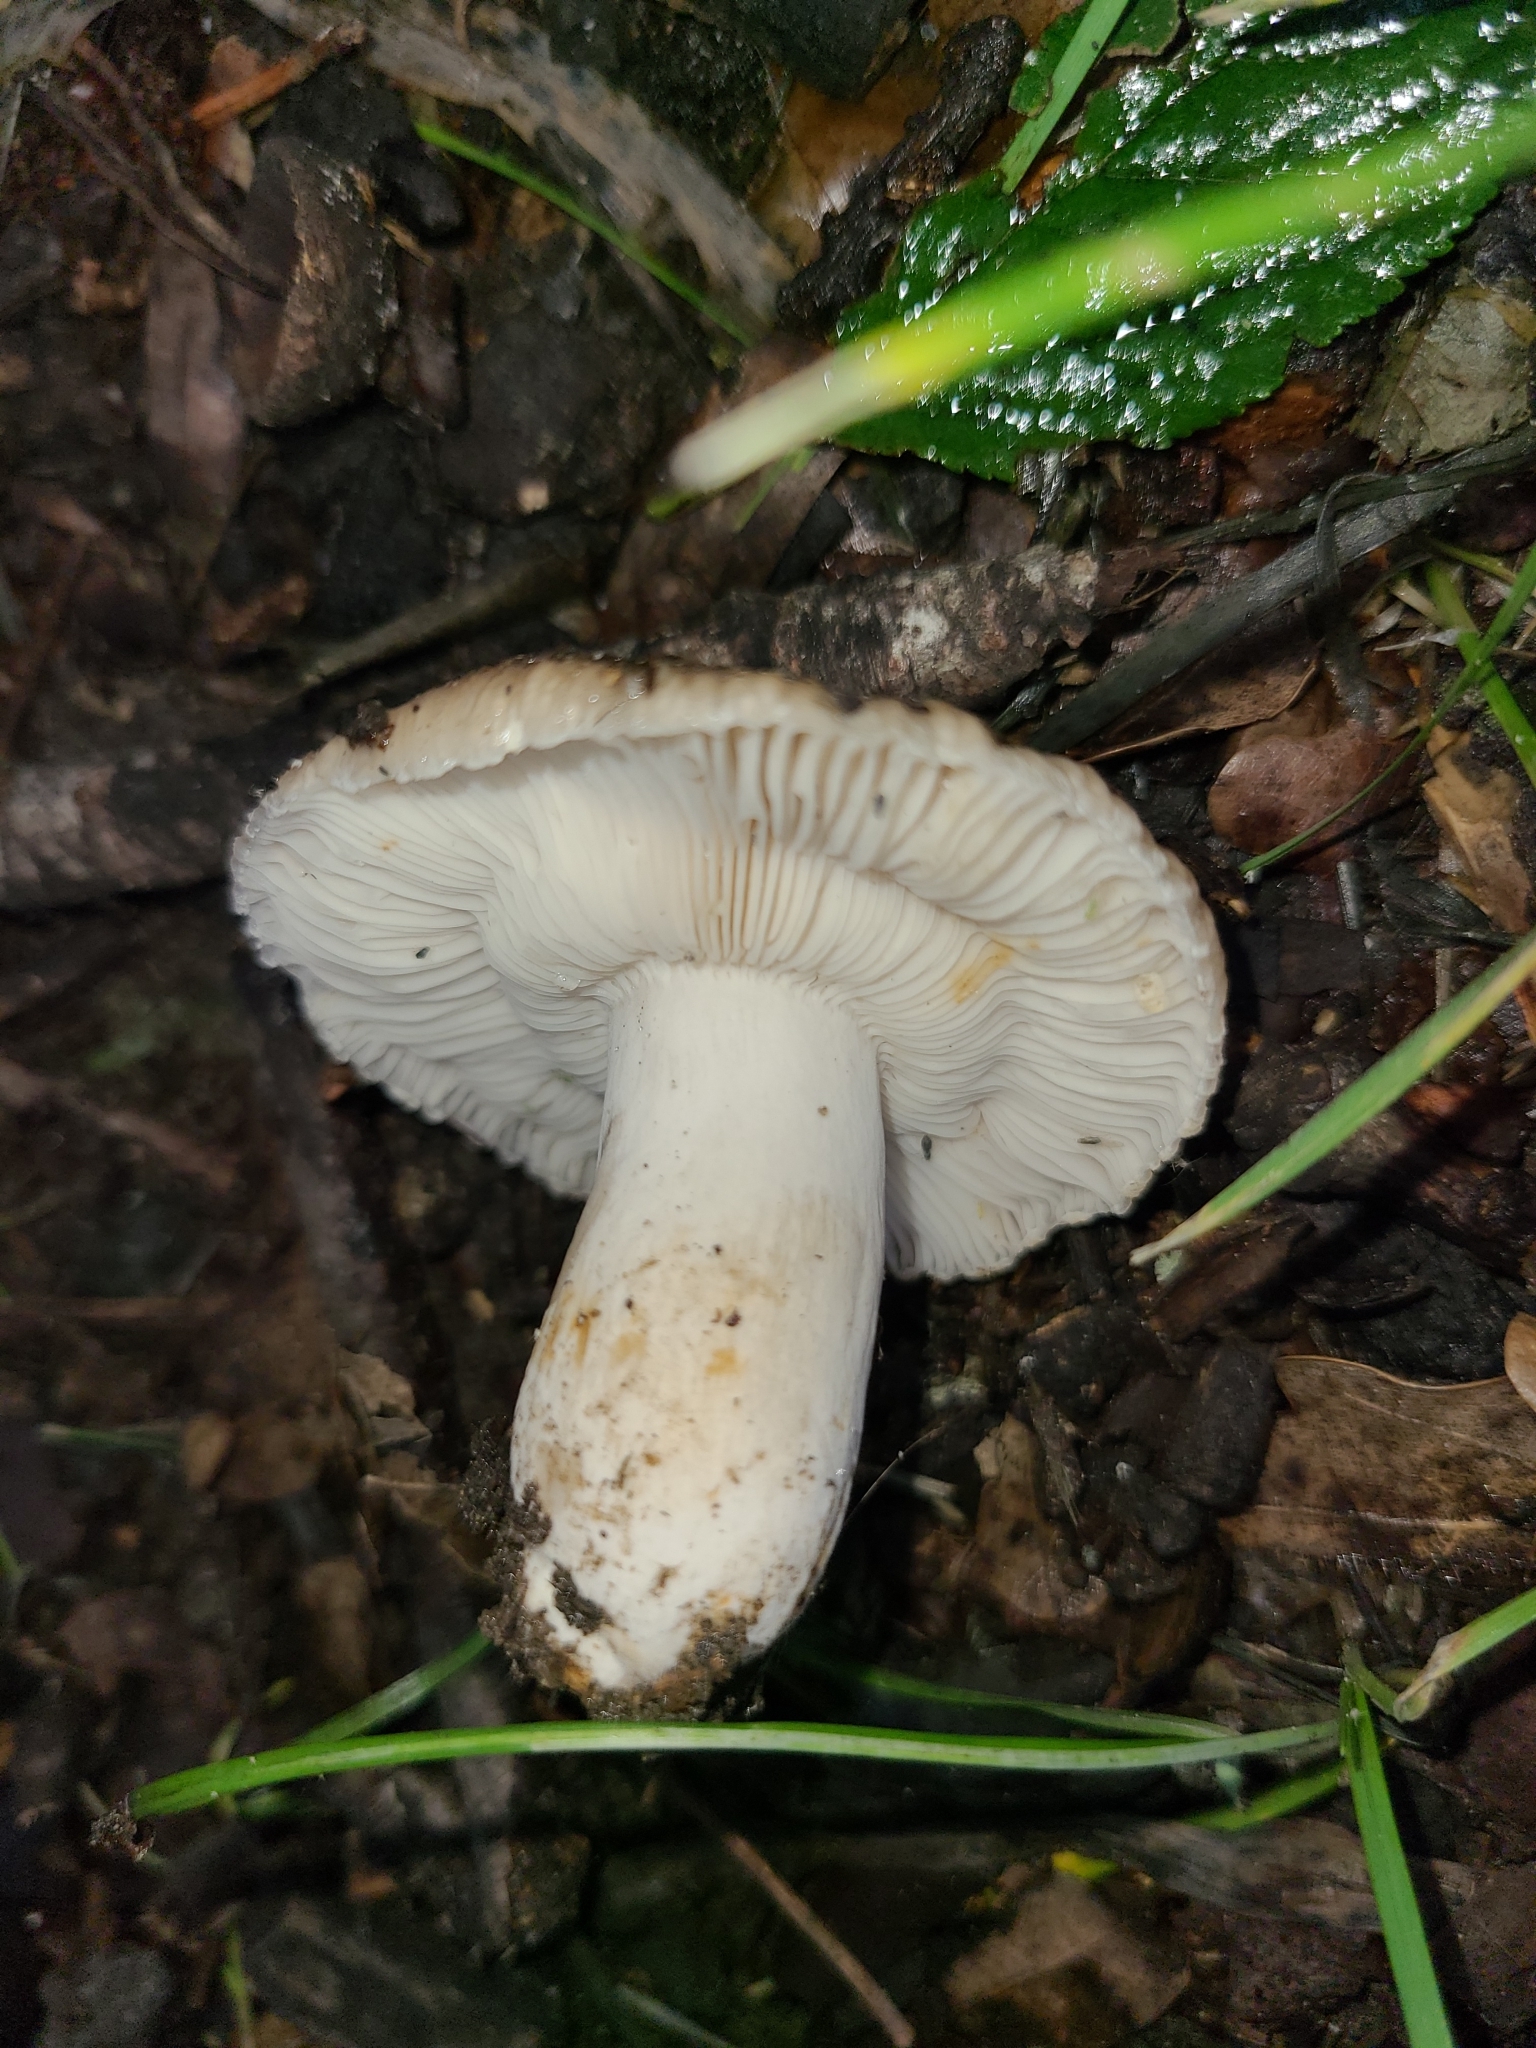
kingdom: Fungi
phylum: Basidiomycota
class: Agaricomycetes
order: Russulales
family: Russulaceae
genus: Russula
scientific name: Russula amoenolens
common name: Camembert brittlegill
